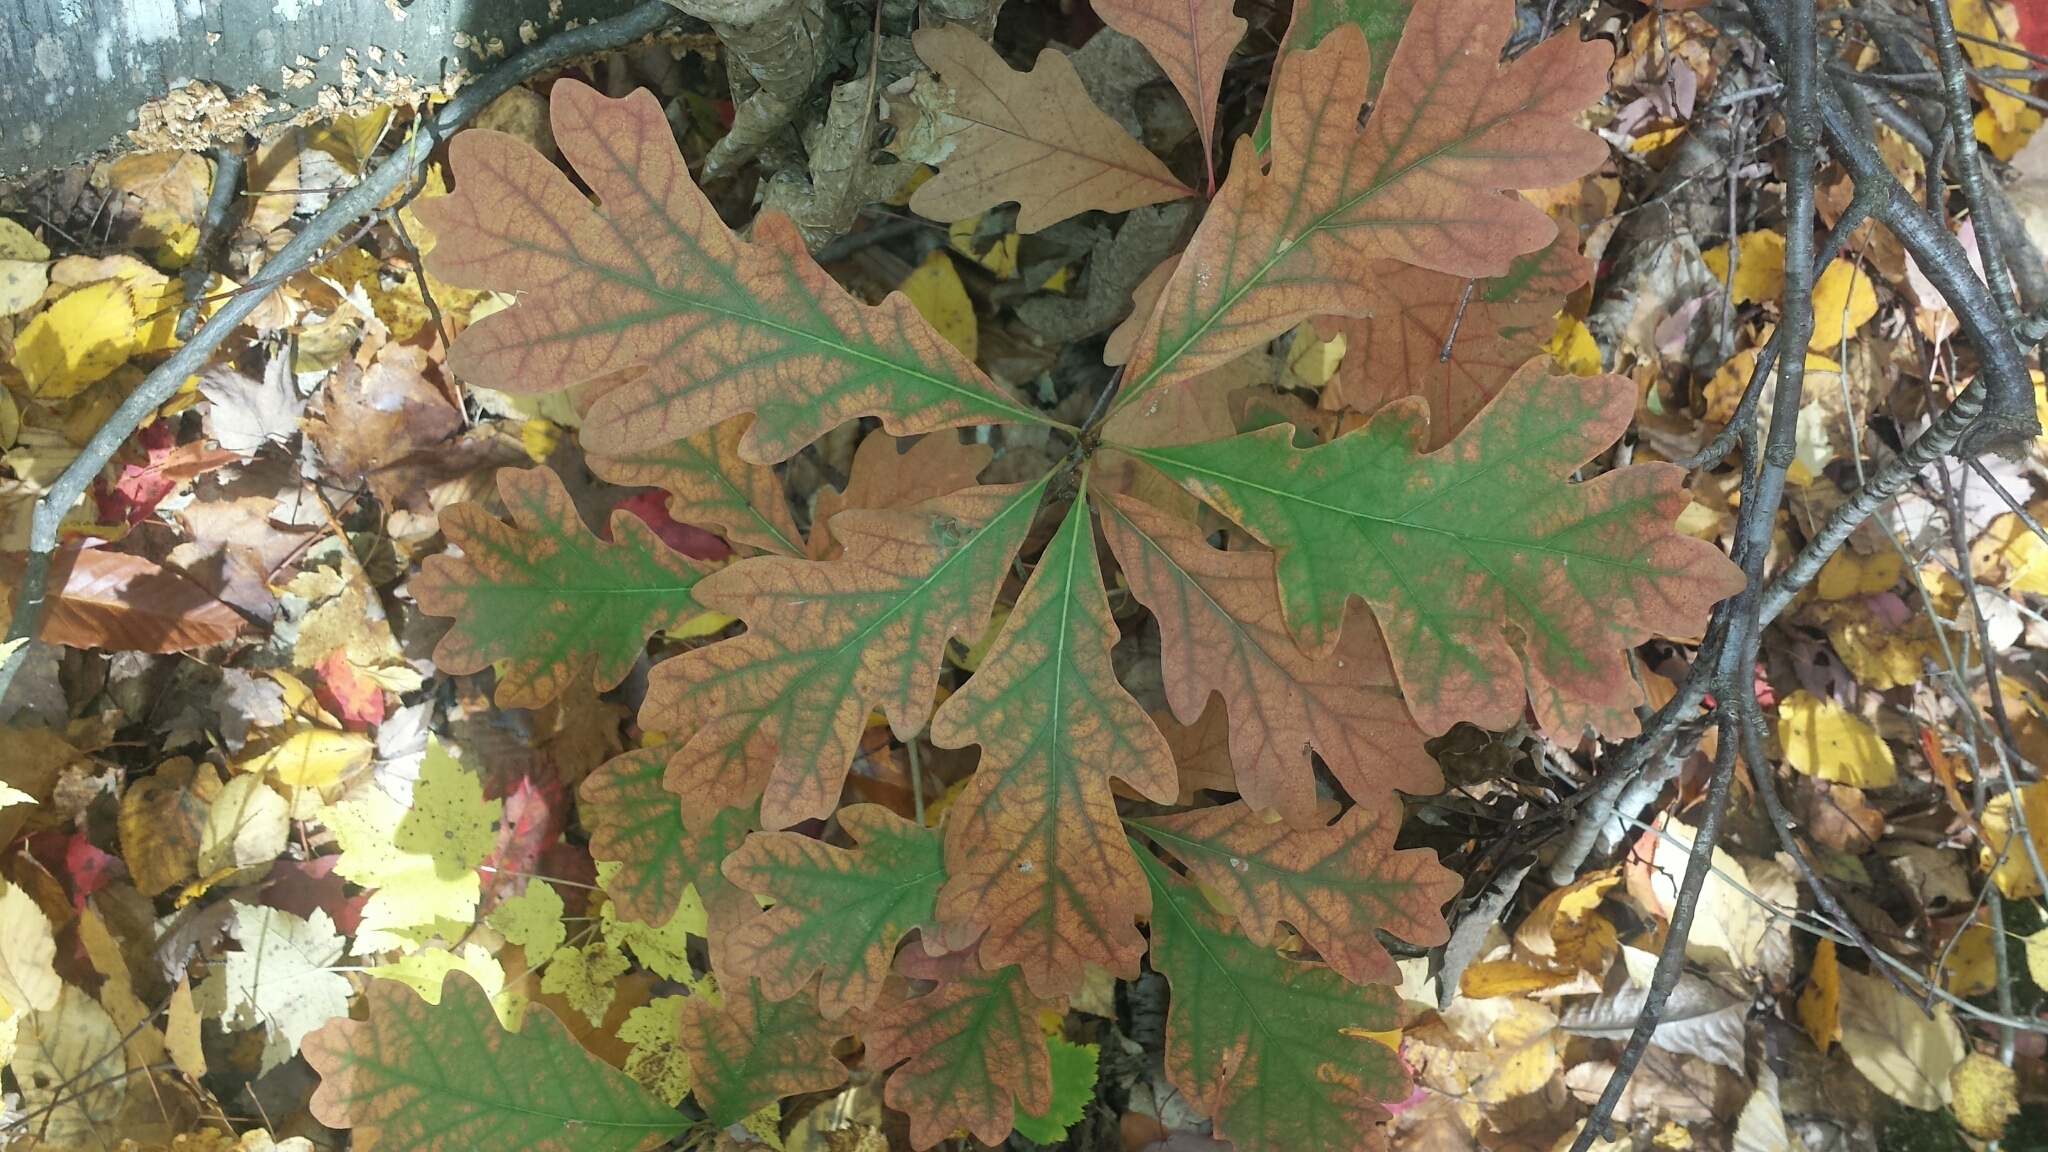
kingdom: Plantae
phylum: Tracheophyta
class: Magnoliopsida
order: Fagales
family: Fagaceae
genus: Quercus
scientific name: Quercus alba
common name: White oak
